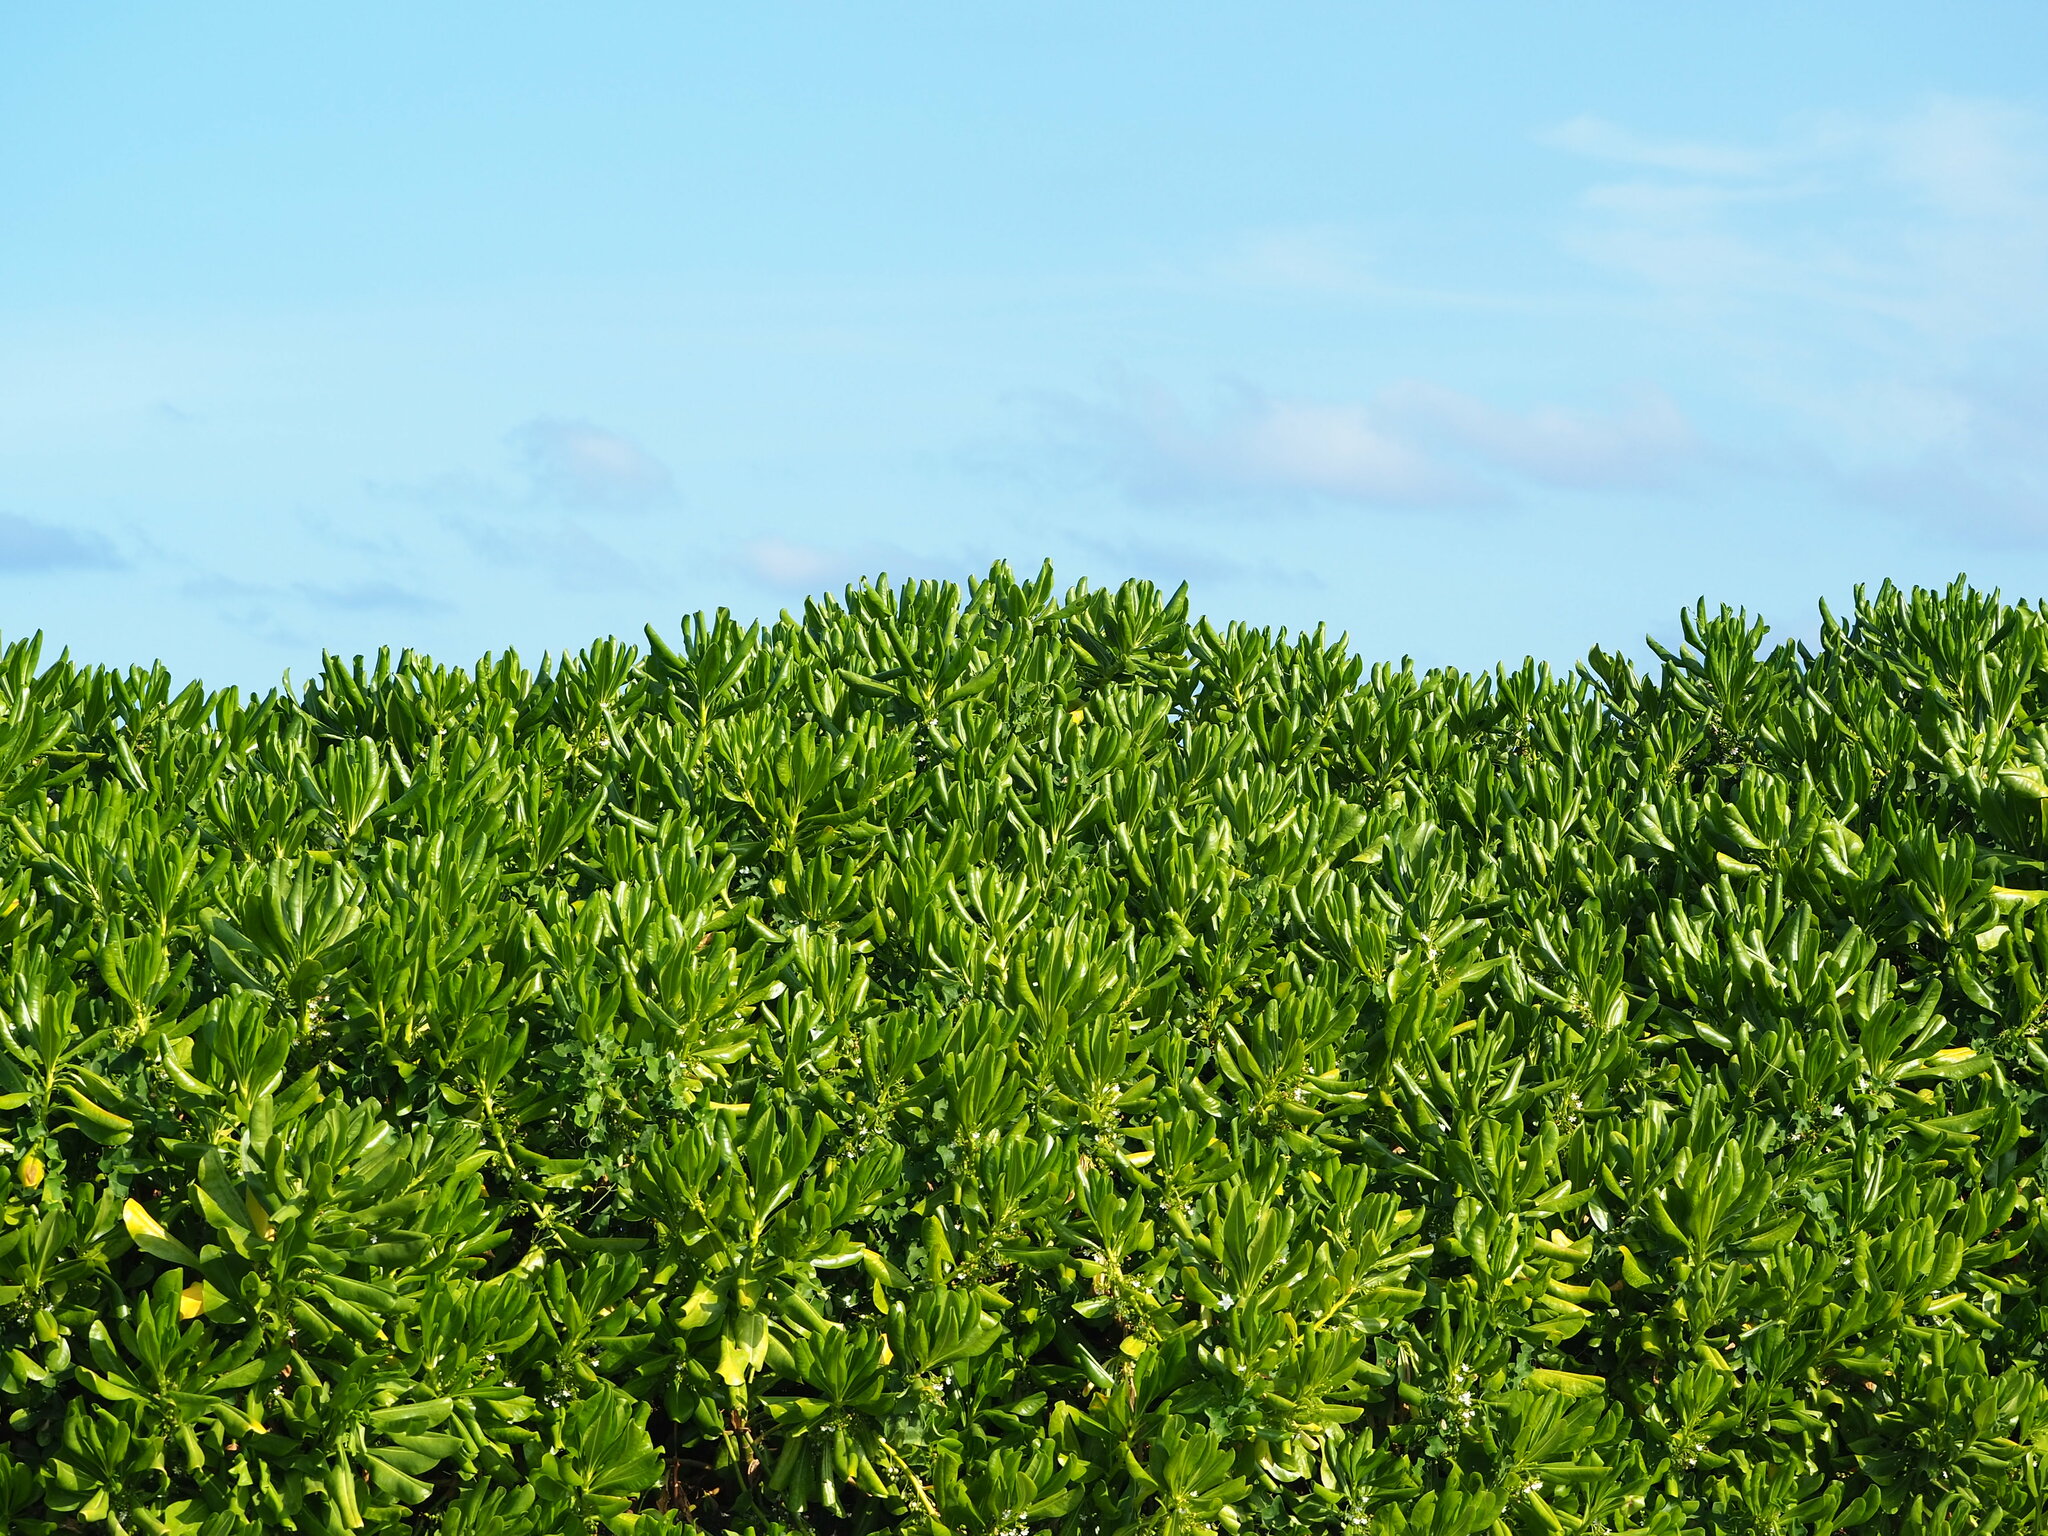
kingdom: Plantae
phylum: Tracheophyta
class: Magnoliopsida
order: Asterales
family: Goodeniaceae
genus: Scaevola
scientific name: Scaevola taccada
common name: Sea lettucetree
